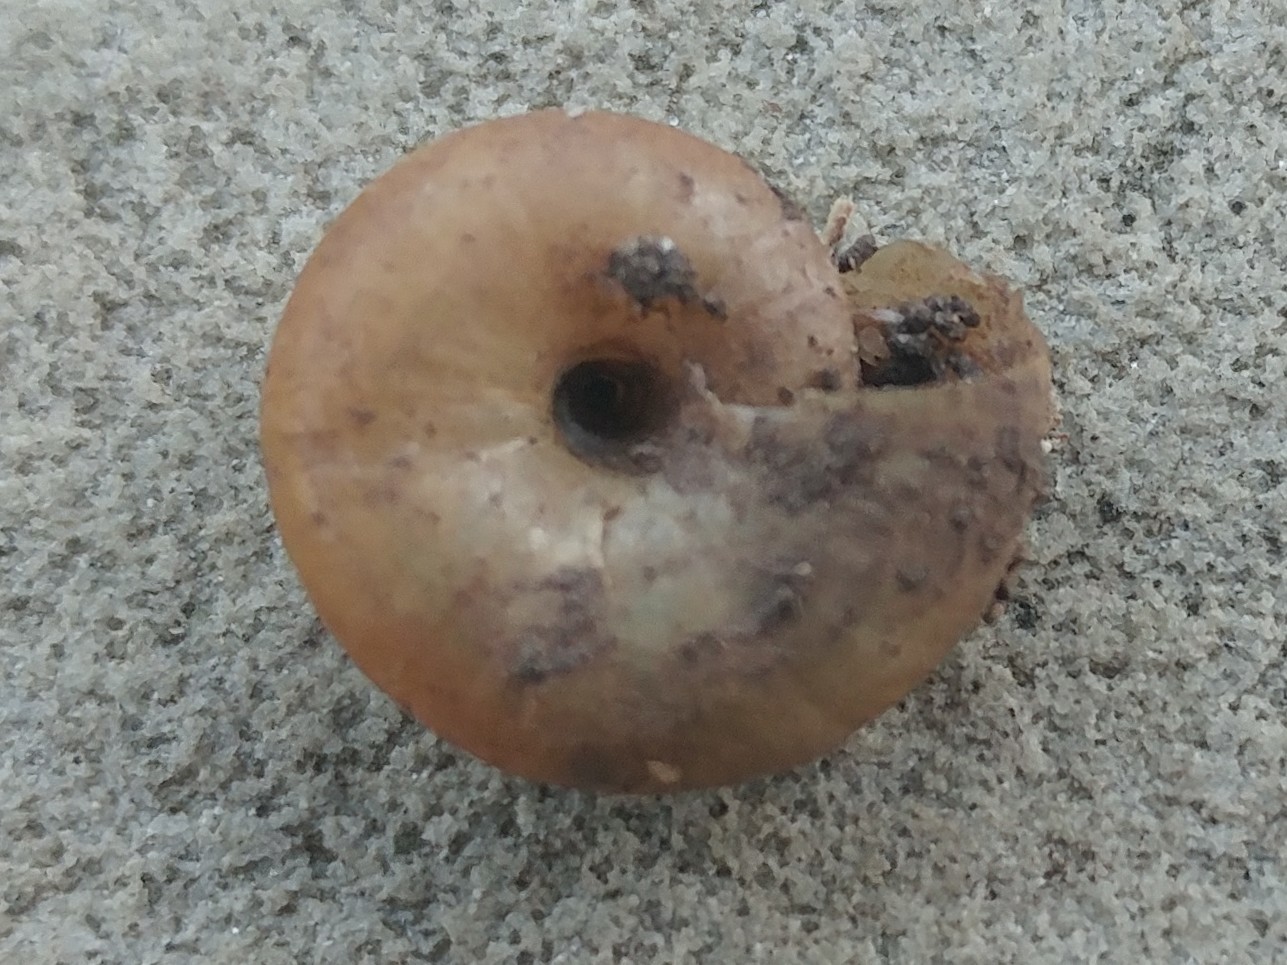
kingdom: Animalia
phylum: Mollusca
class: Gastropoda
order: Stylommatophora
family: Oxychilidae
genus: Oxychilus
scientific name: Oxychilus
